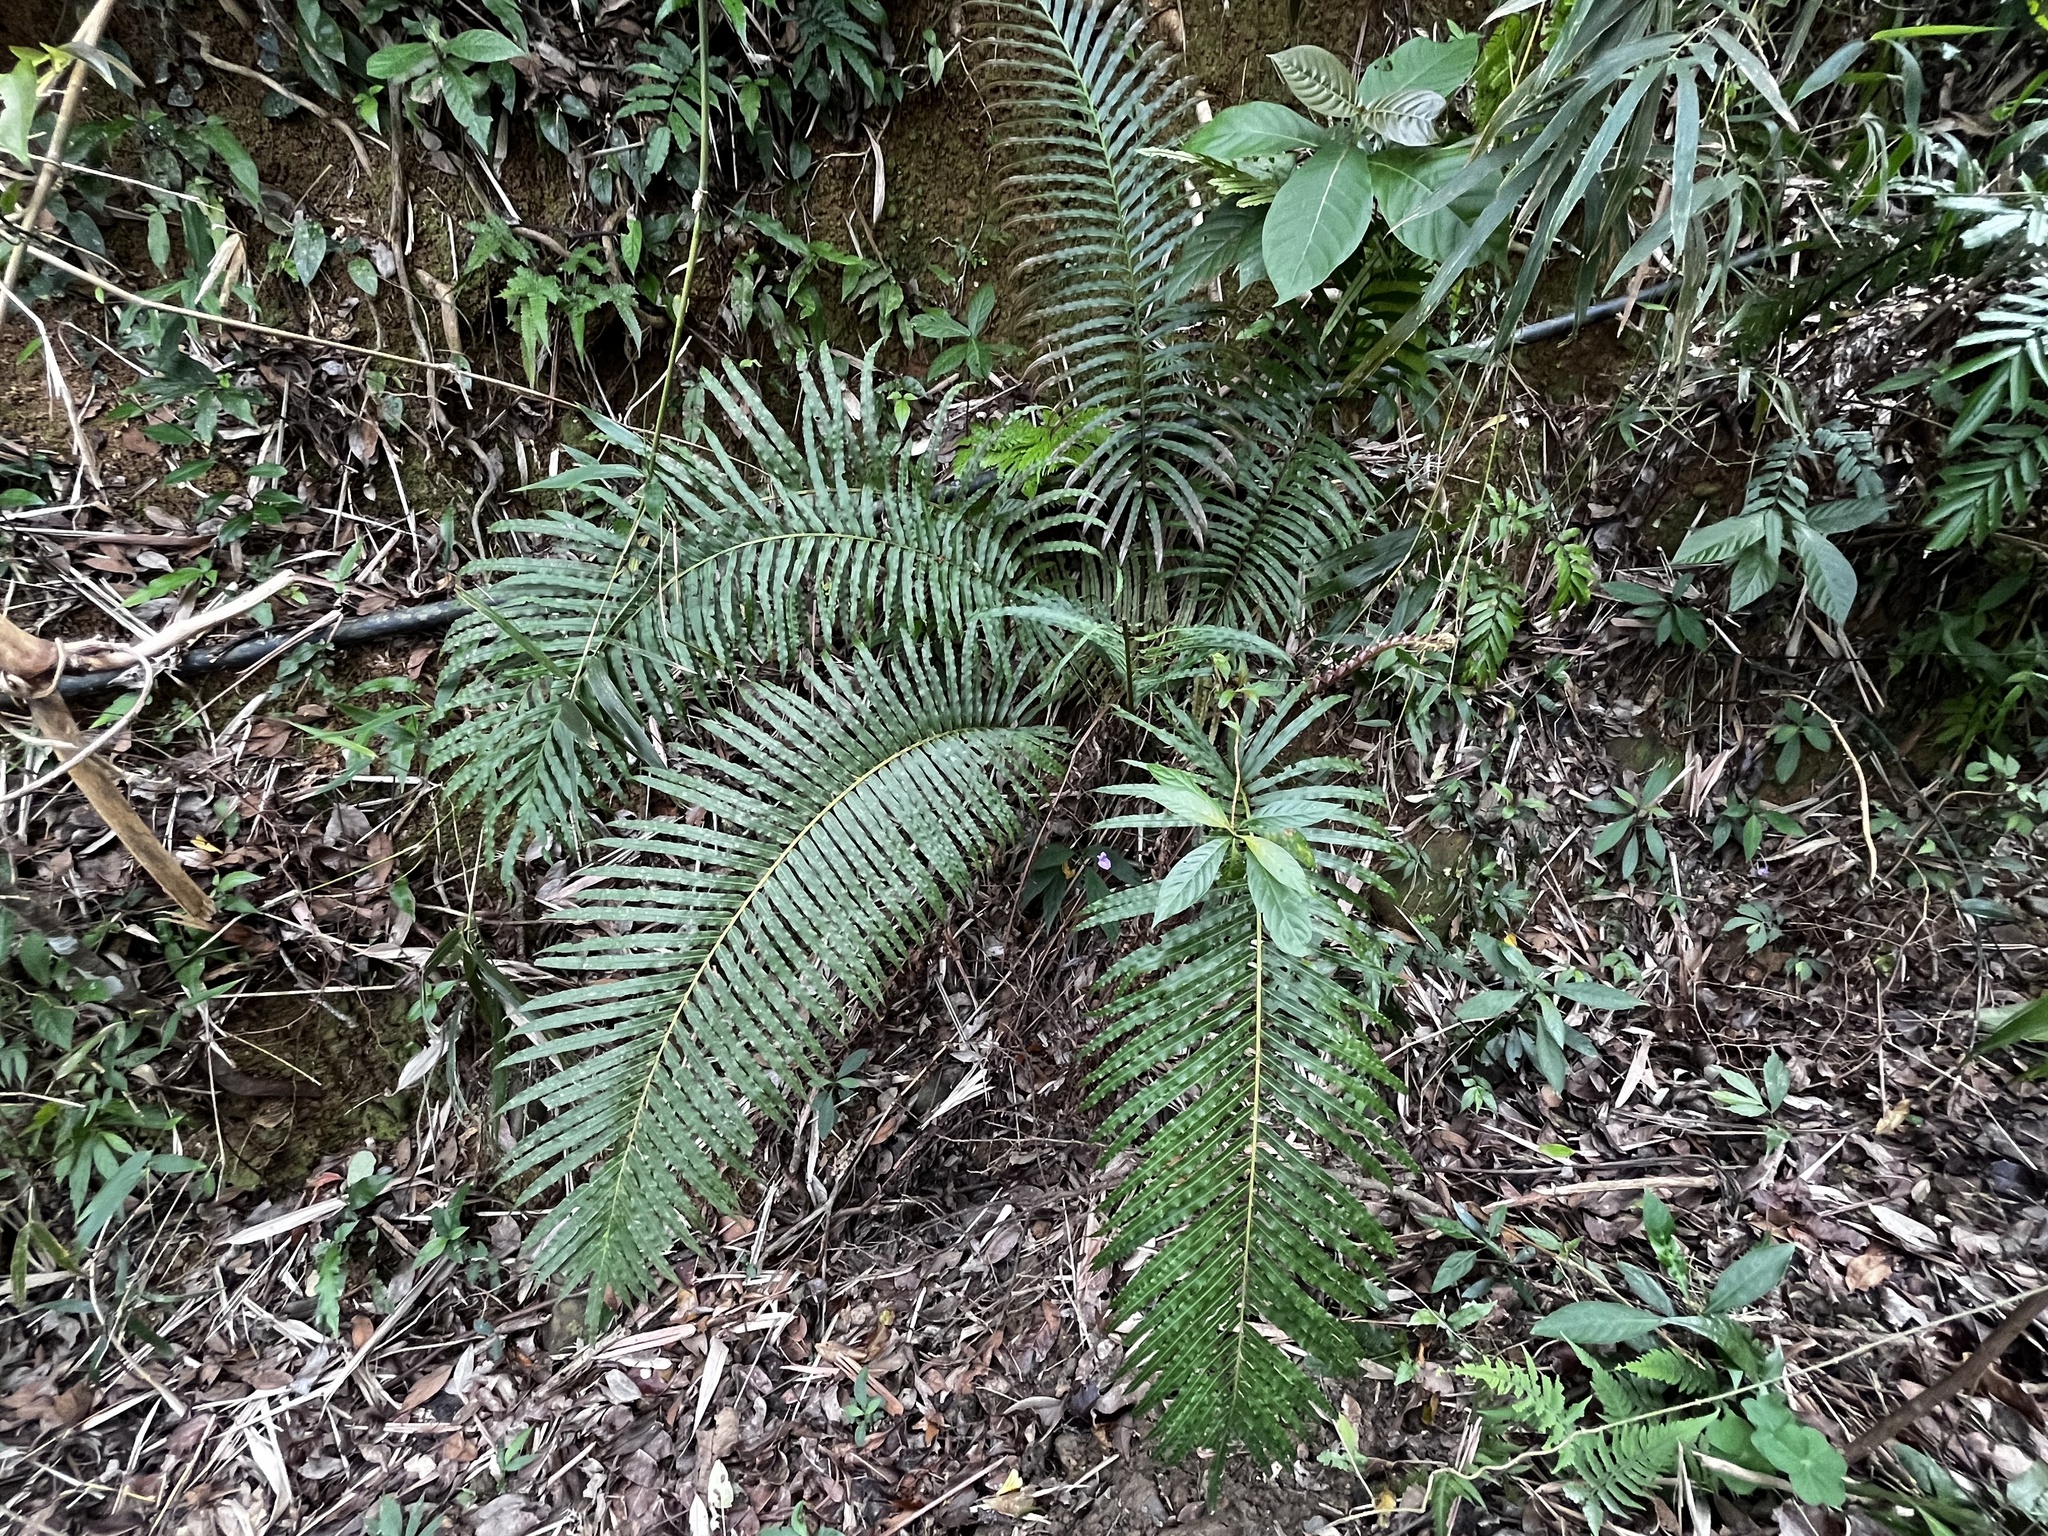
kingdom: Plantae
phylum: Tracheophyta
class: Polypodiopsida
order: Polypodiales
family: Blechnaceae
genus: Blechnopsis
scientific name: Blechnopsis orientalis
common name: Oriental blechnum
